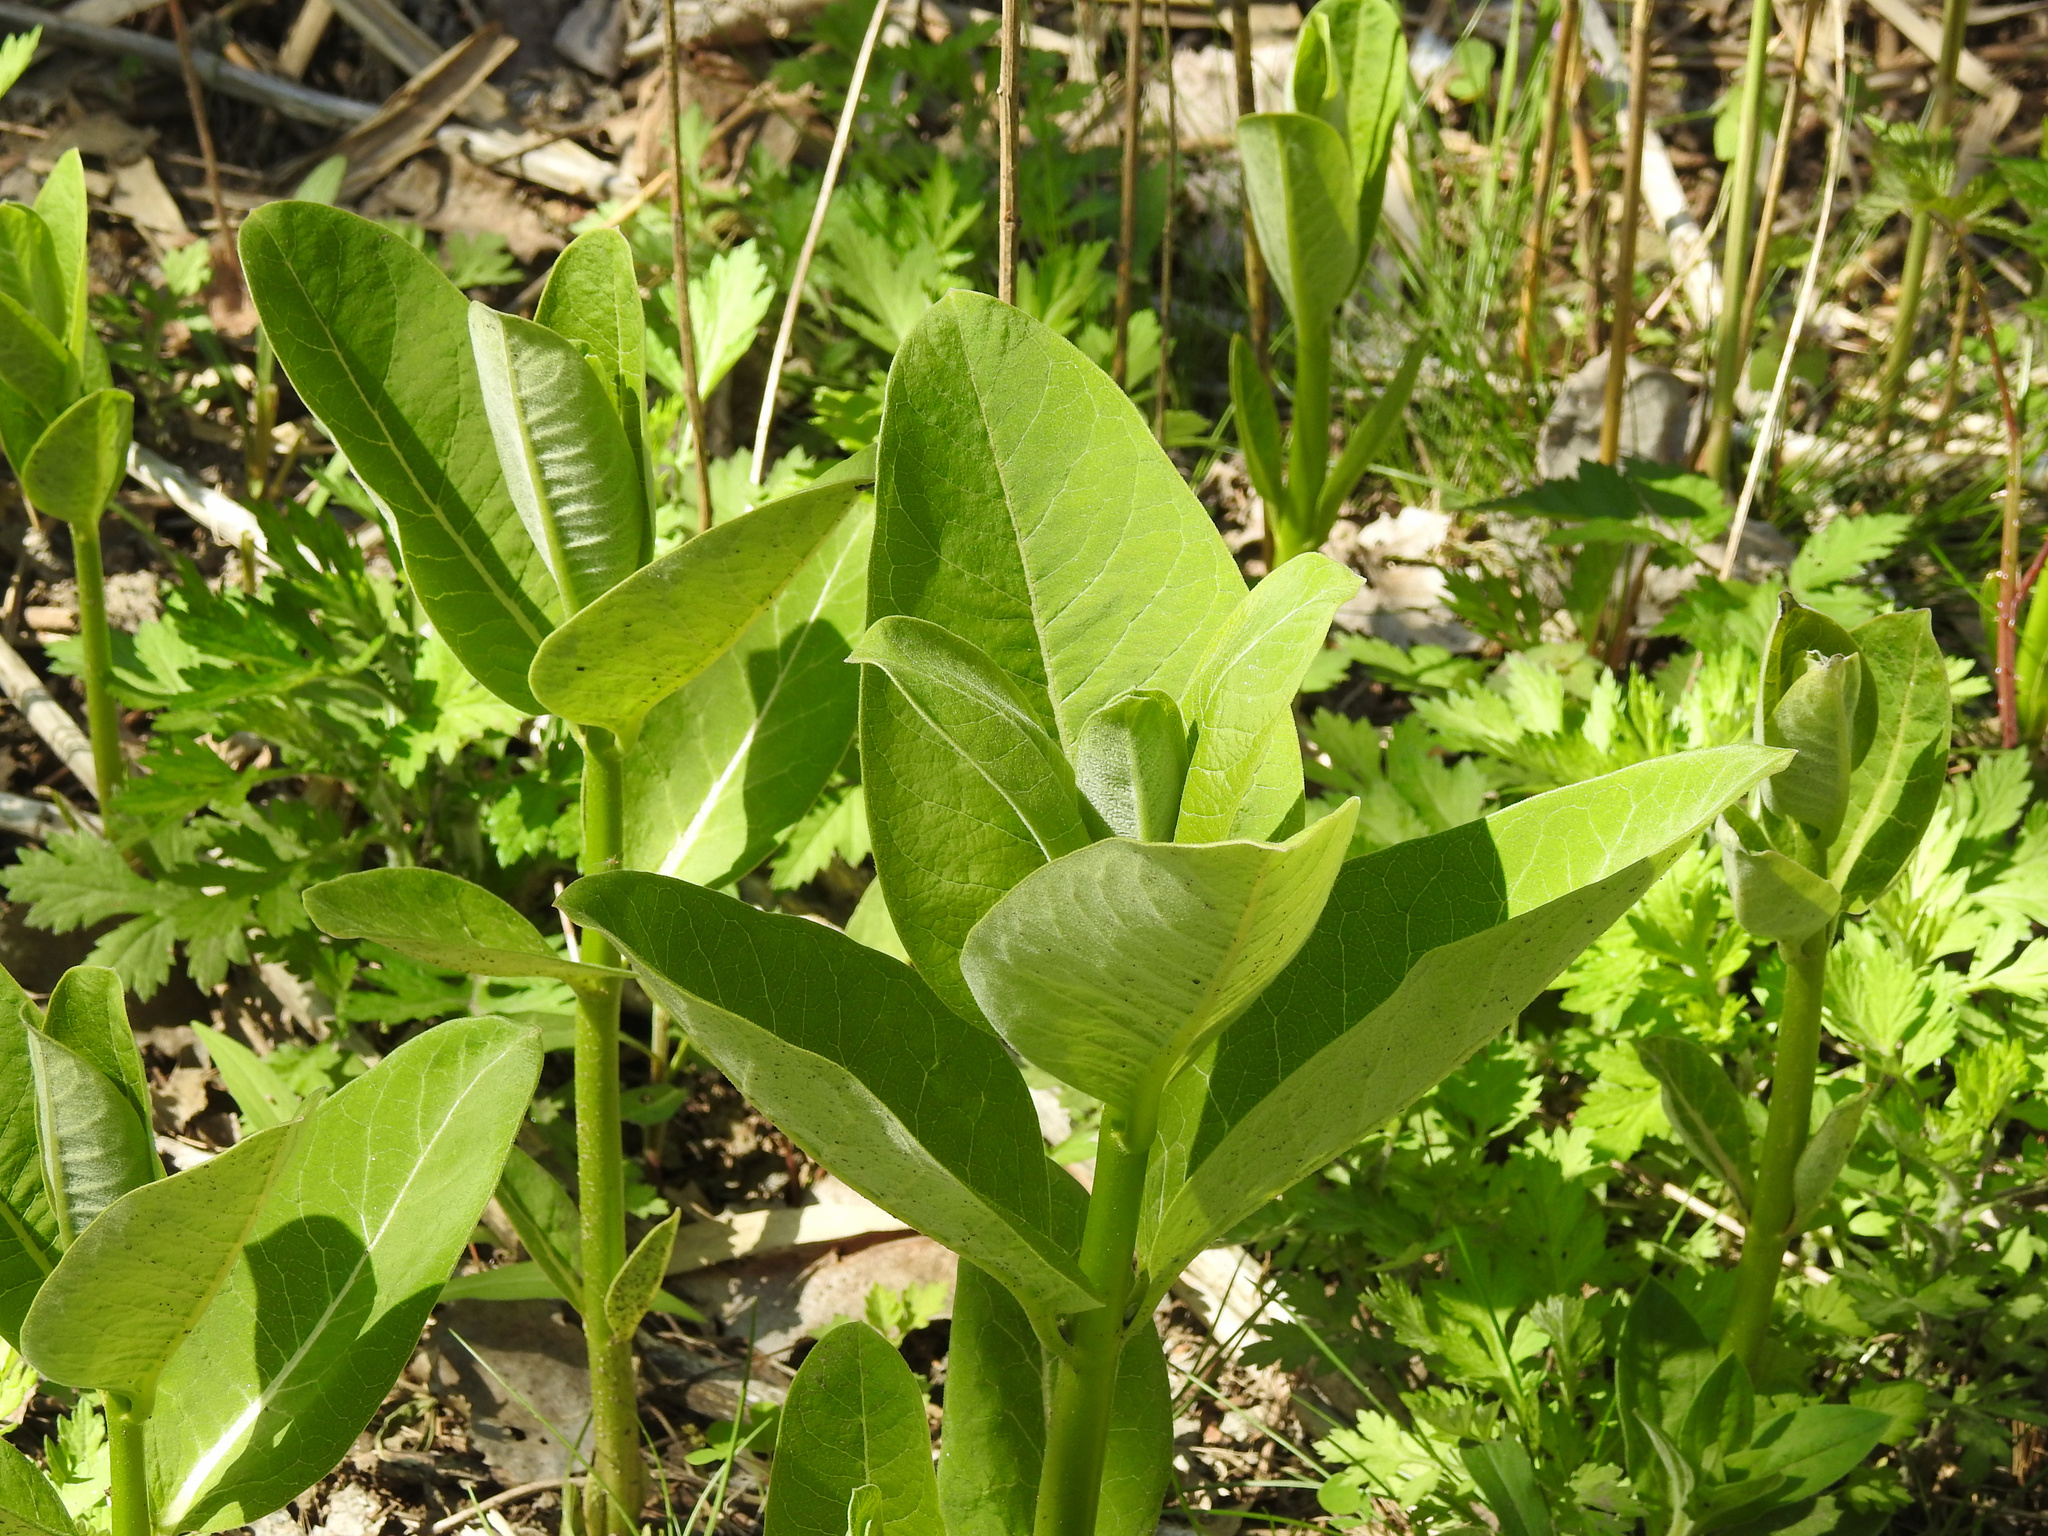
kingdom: Plantae
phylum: Tracheophyta
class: Magnoliopsida
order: Gentianales
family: Apocynaceae
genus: Asclepias
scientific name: Asclepias syriaca
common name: Common milkweed
